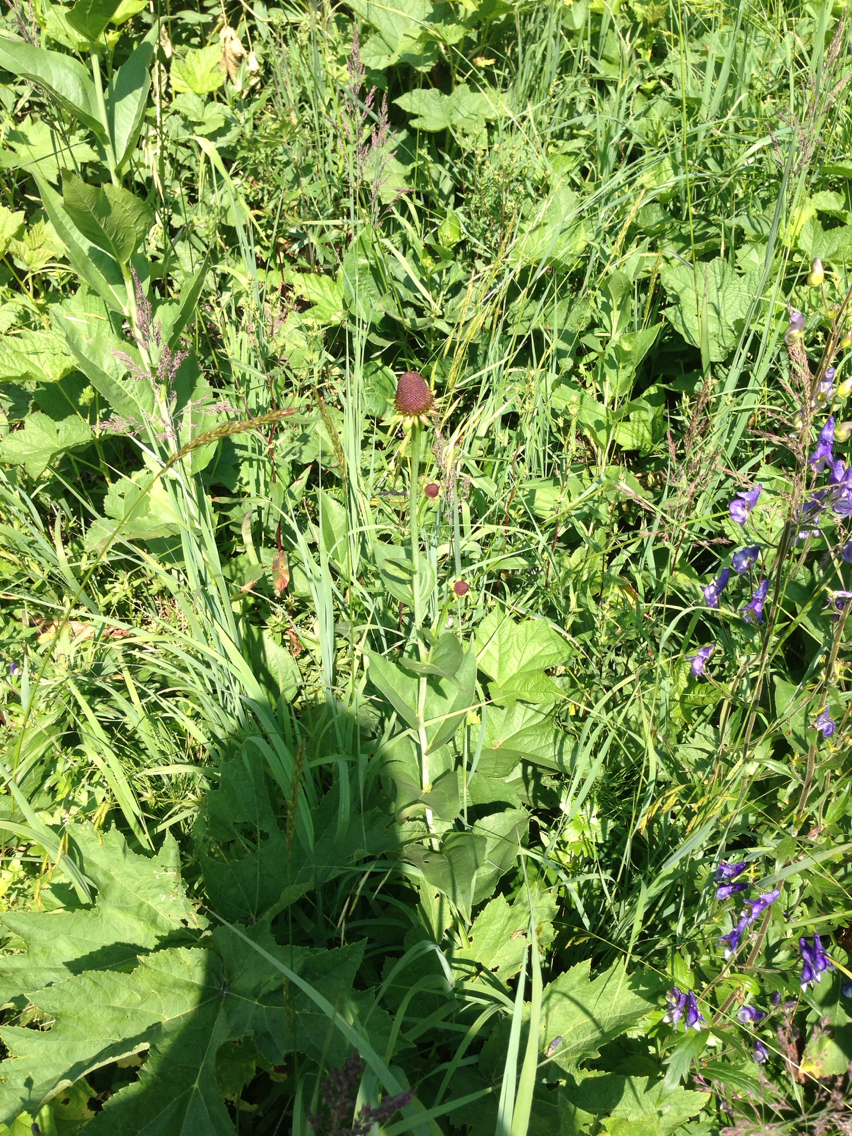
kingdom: Plantae
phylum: Tracheophyta
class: Magnoliopsida
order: Asterales
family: Asteraceae
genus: Rudbeckia
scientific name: Rudbeckia occidentalis
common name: Western coneflower
